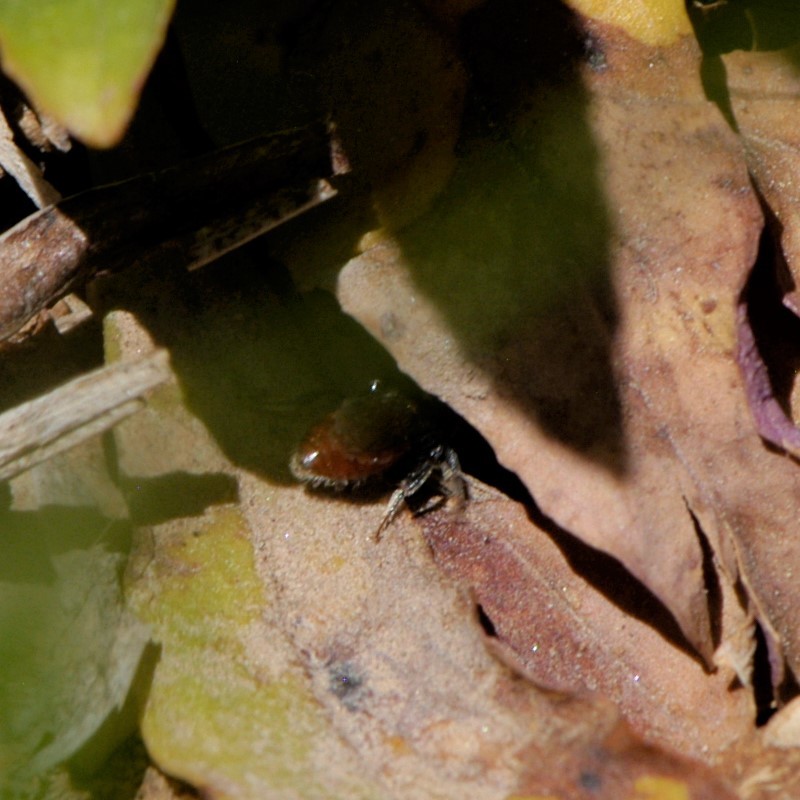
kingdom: Animalia
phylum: Arthropoda
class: Insecta
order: Hymenoptera
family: Halictidae
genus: Sphecodes
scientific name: Sphecodes
